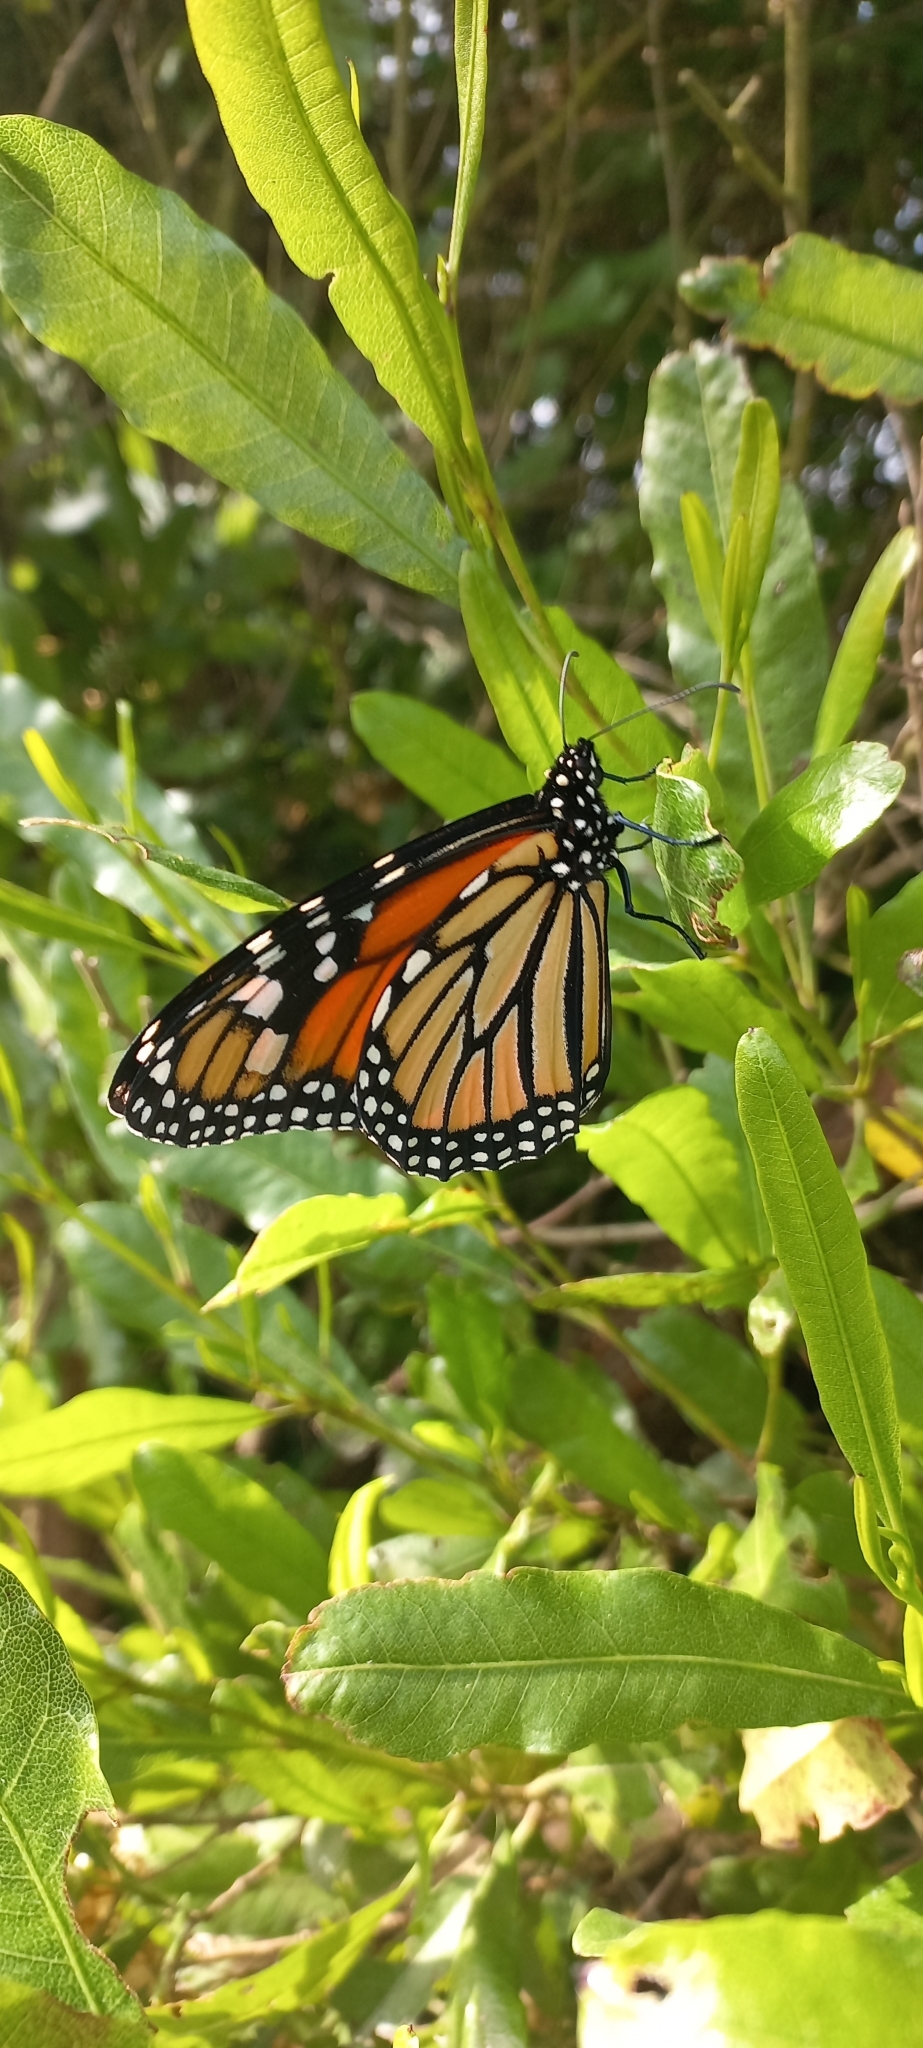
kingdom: Animalia
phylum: Arthropoda
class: Insecta
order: Lepidoptera
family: Nymphalidae
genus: Danaus
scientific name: Danaus plexippus
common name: Monarch
